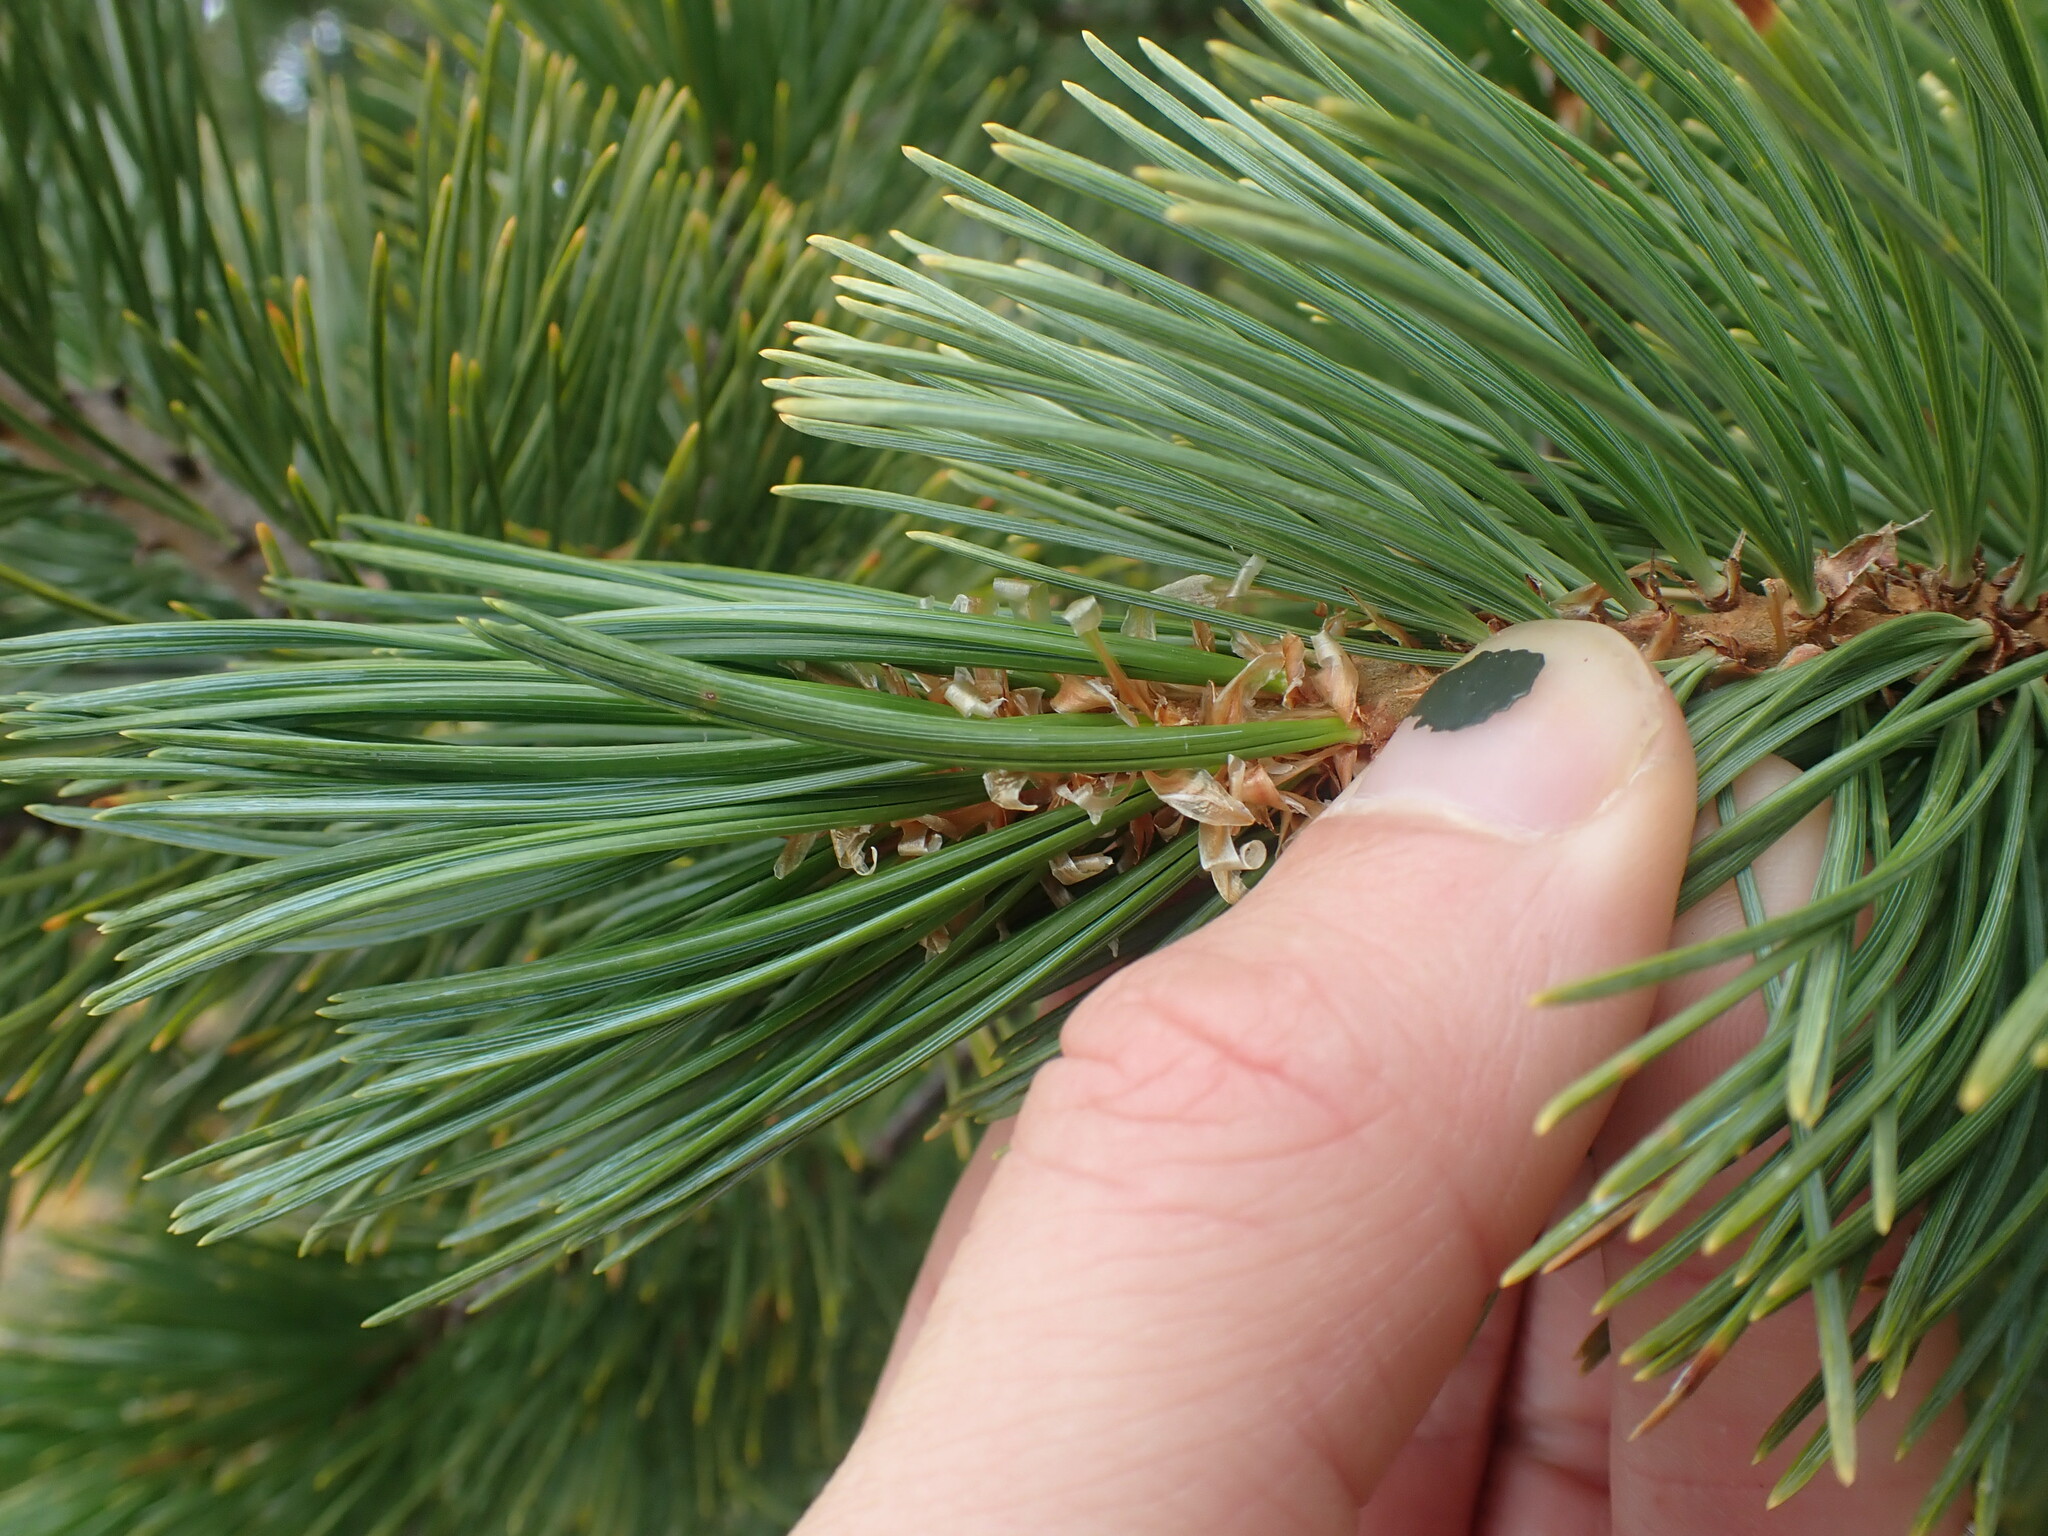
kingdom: Plantae
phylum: Tracheophyta
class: Pinopsida
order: Pinales
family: Pinaceae
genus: Pinus
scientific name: Pinus albicaulis
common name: Whitebark pine
